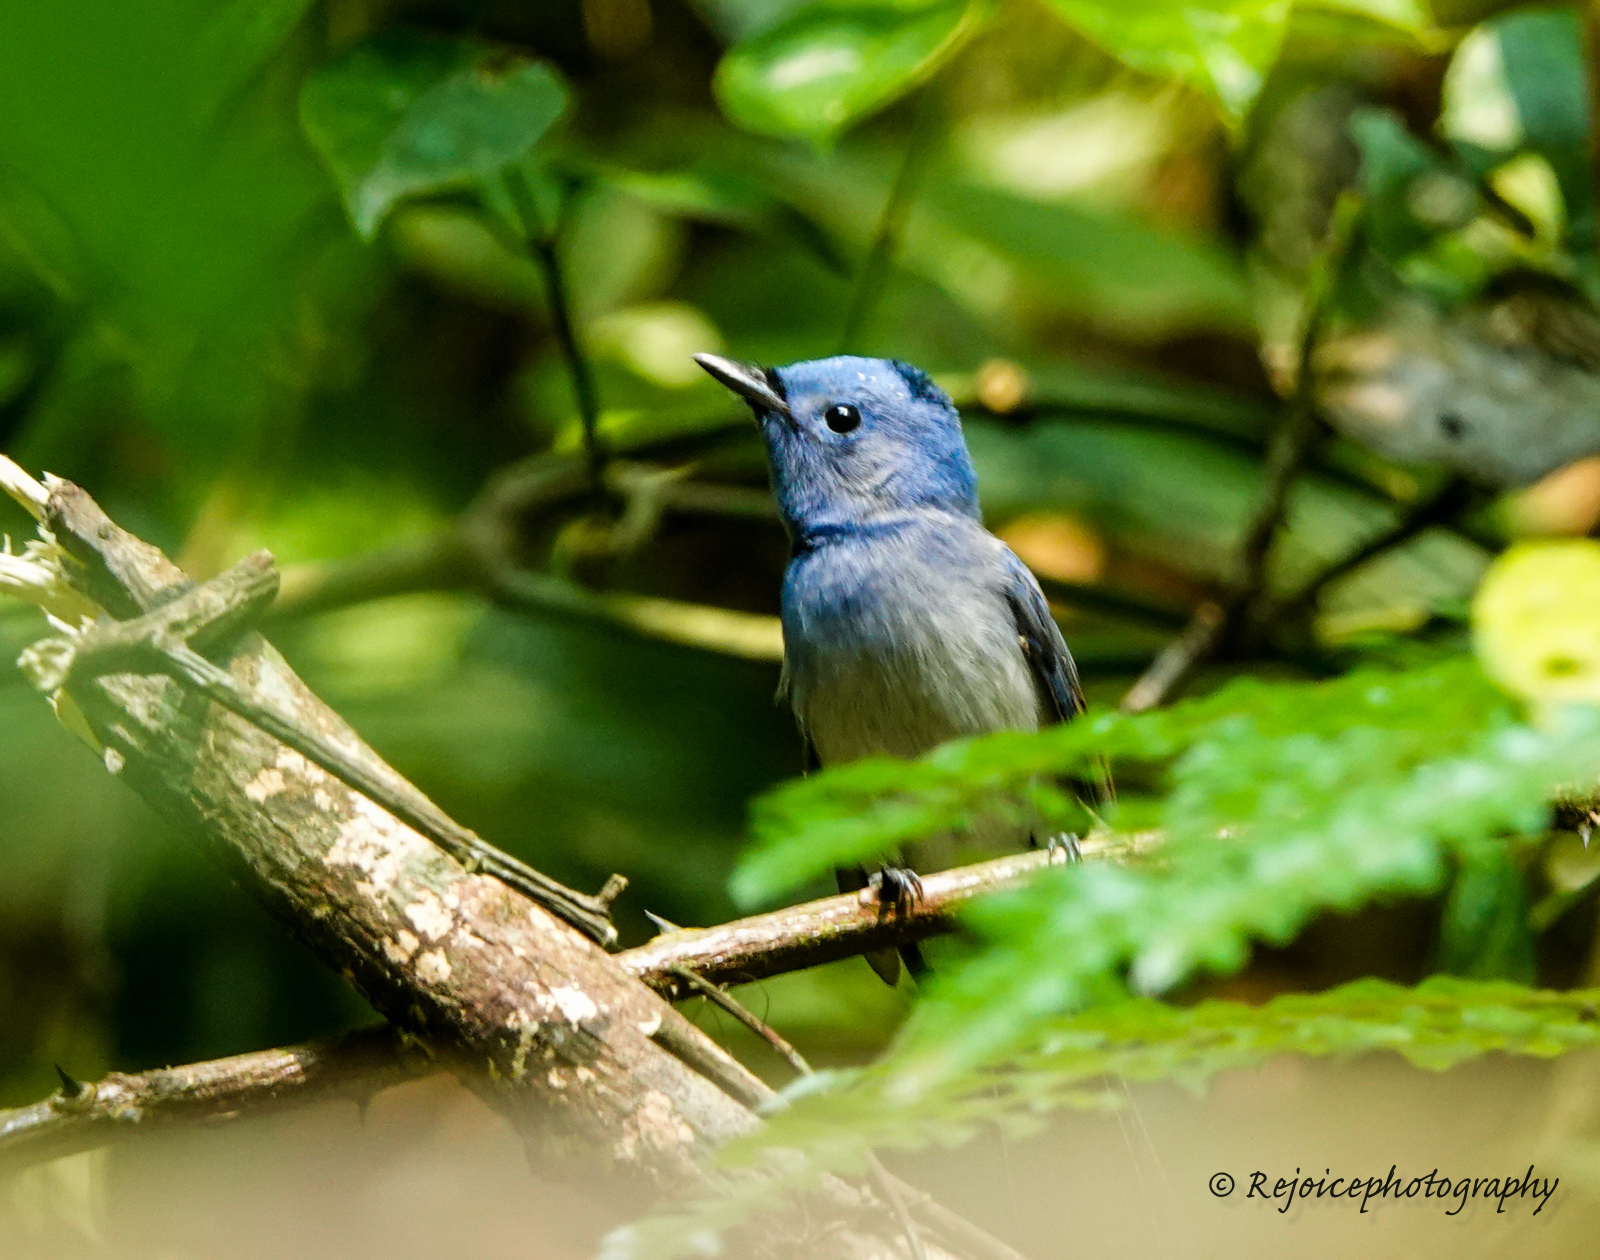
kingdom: Animalia
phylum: Chordata
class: Aves
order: Passeriformes
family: Monarchidae
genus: Hypothymis
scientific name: Hypothymis azurea
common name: Black-naped monarch
